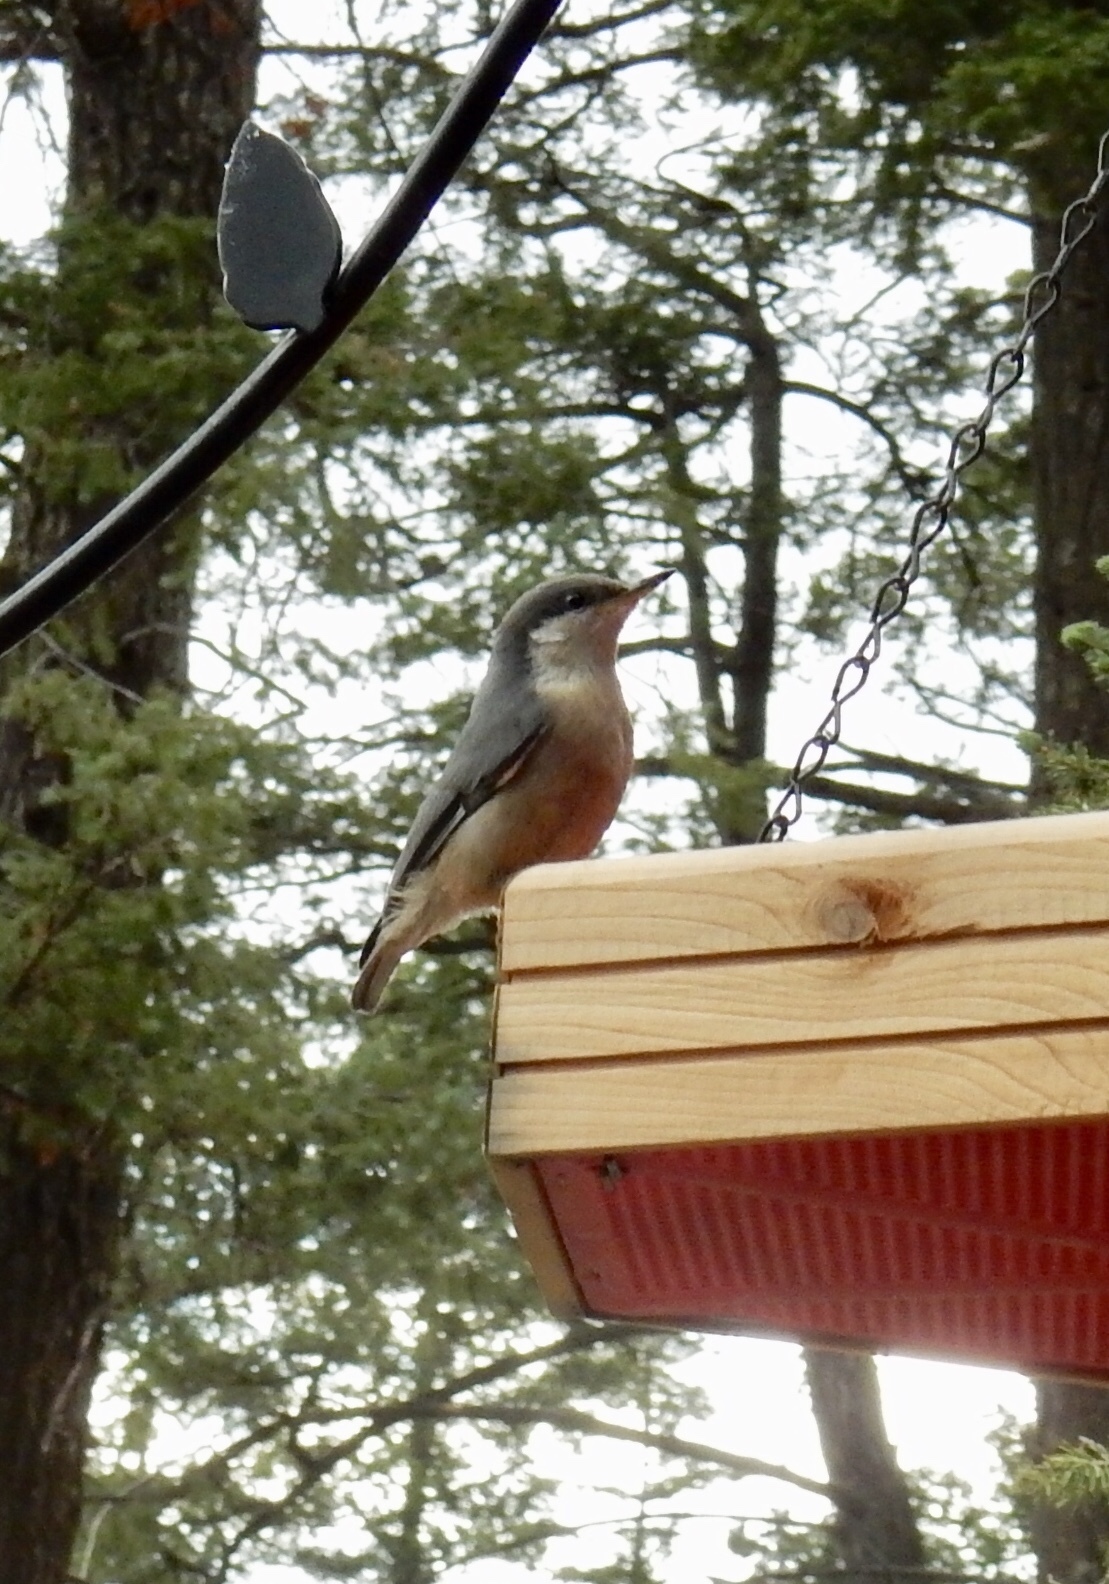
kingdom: Animalia
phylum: Chordata
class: Aves
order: Passeriformes
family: Sittidae
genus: Sitta
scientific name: Sitta pygmaea
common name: Pygmy nuthatch
